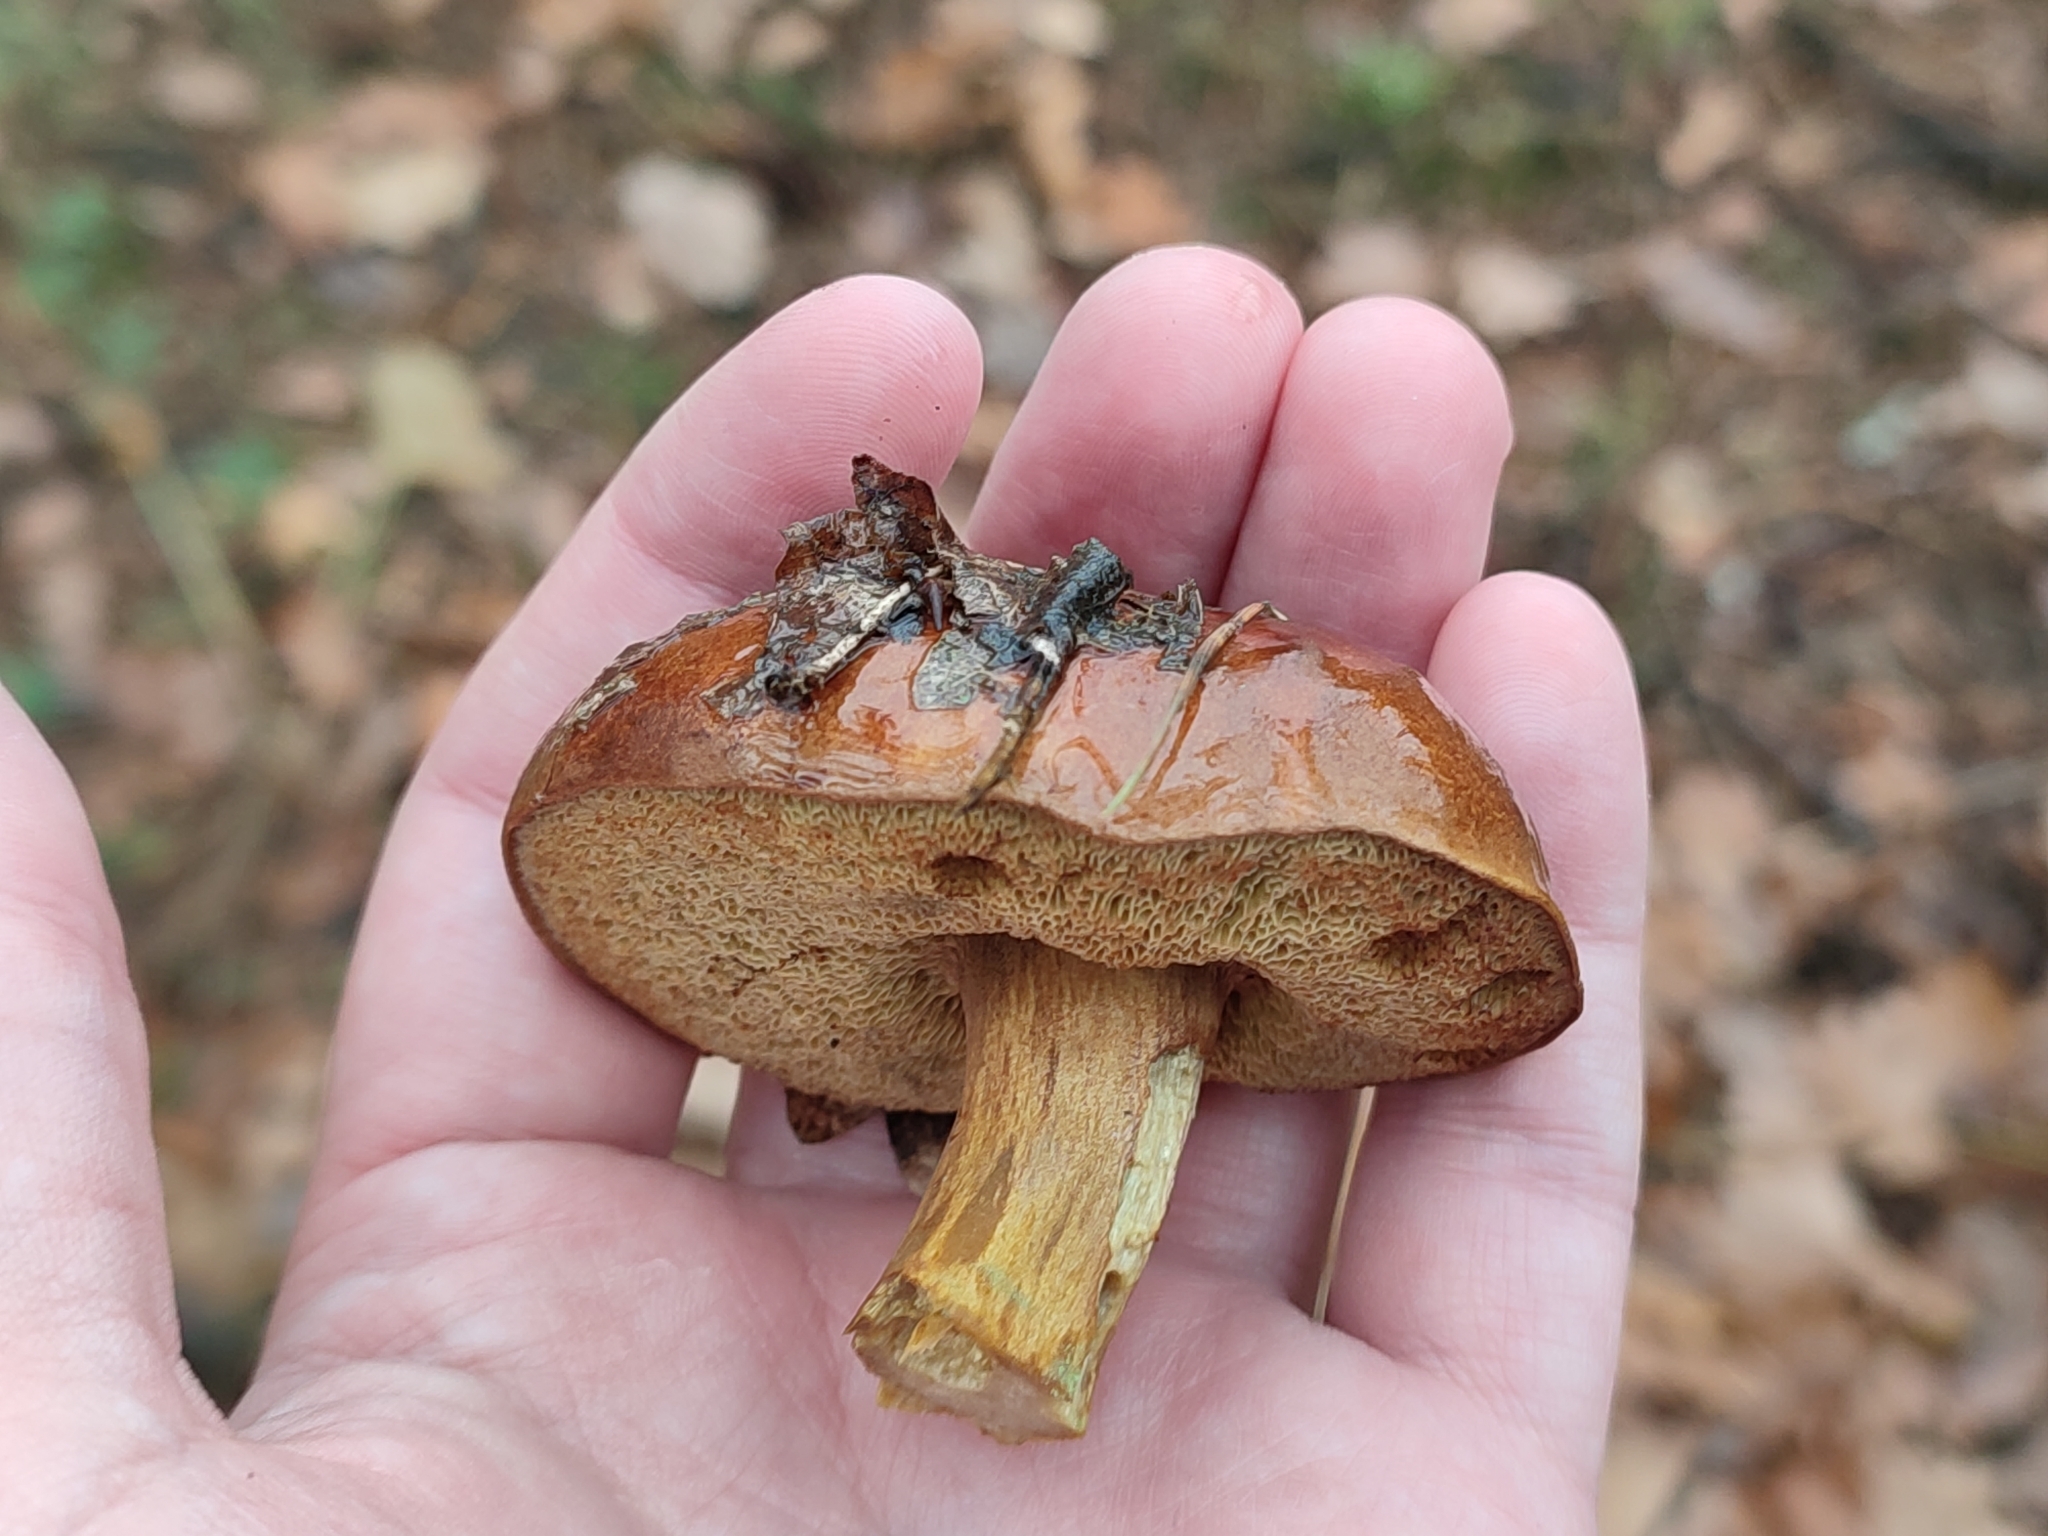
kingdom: Fungi
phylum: Basidiomycota
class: Agaricomycetes
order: Boletales
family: Boletaceae
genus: Imleria
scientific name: Imleria badia
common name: Bay bolete
